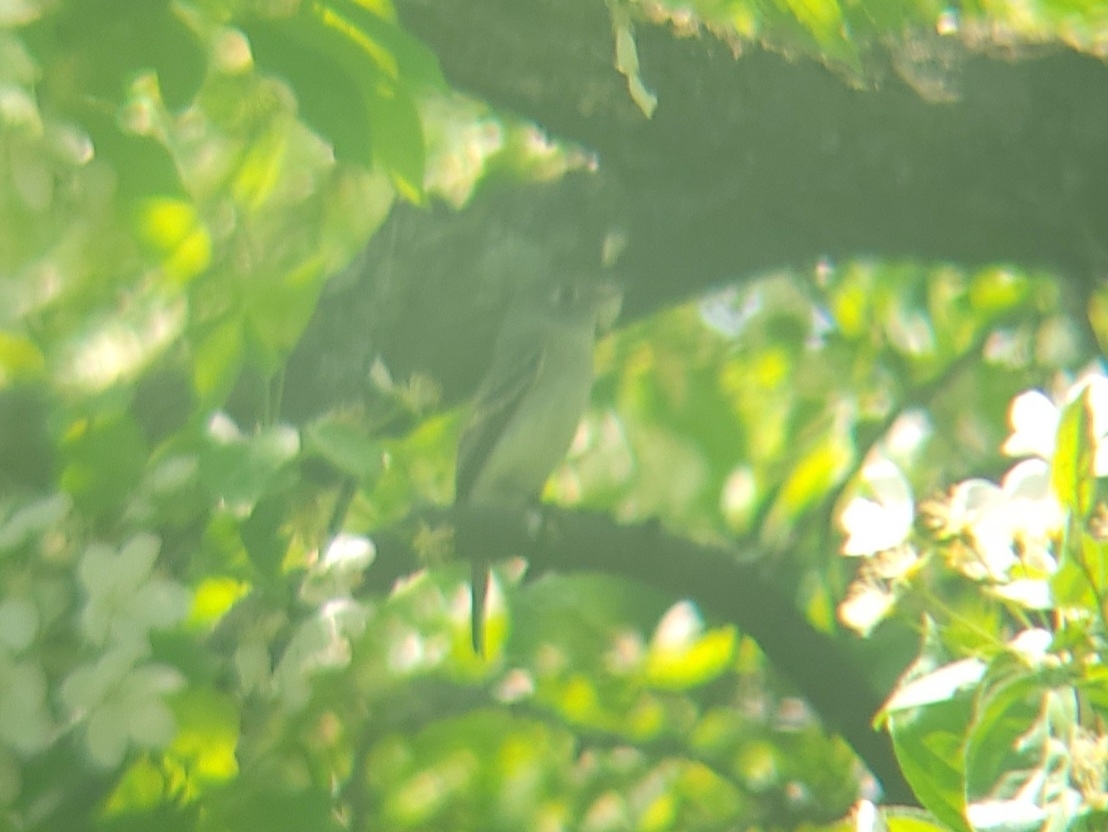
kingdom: Animalia
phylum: Chordata
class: Aves
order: Passeriformes
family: Tyrannidae
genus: Empidonax
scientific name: Empidonax minimus
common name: Least flycatcher
